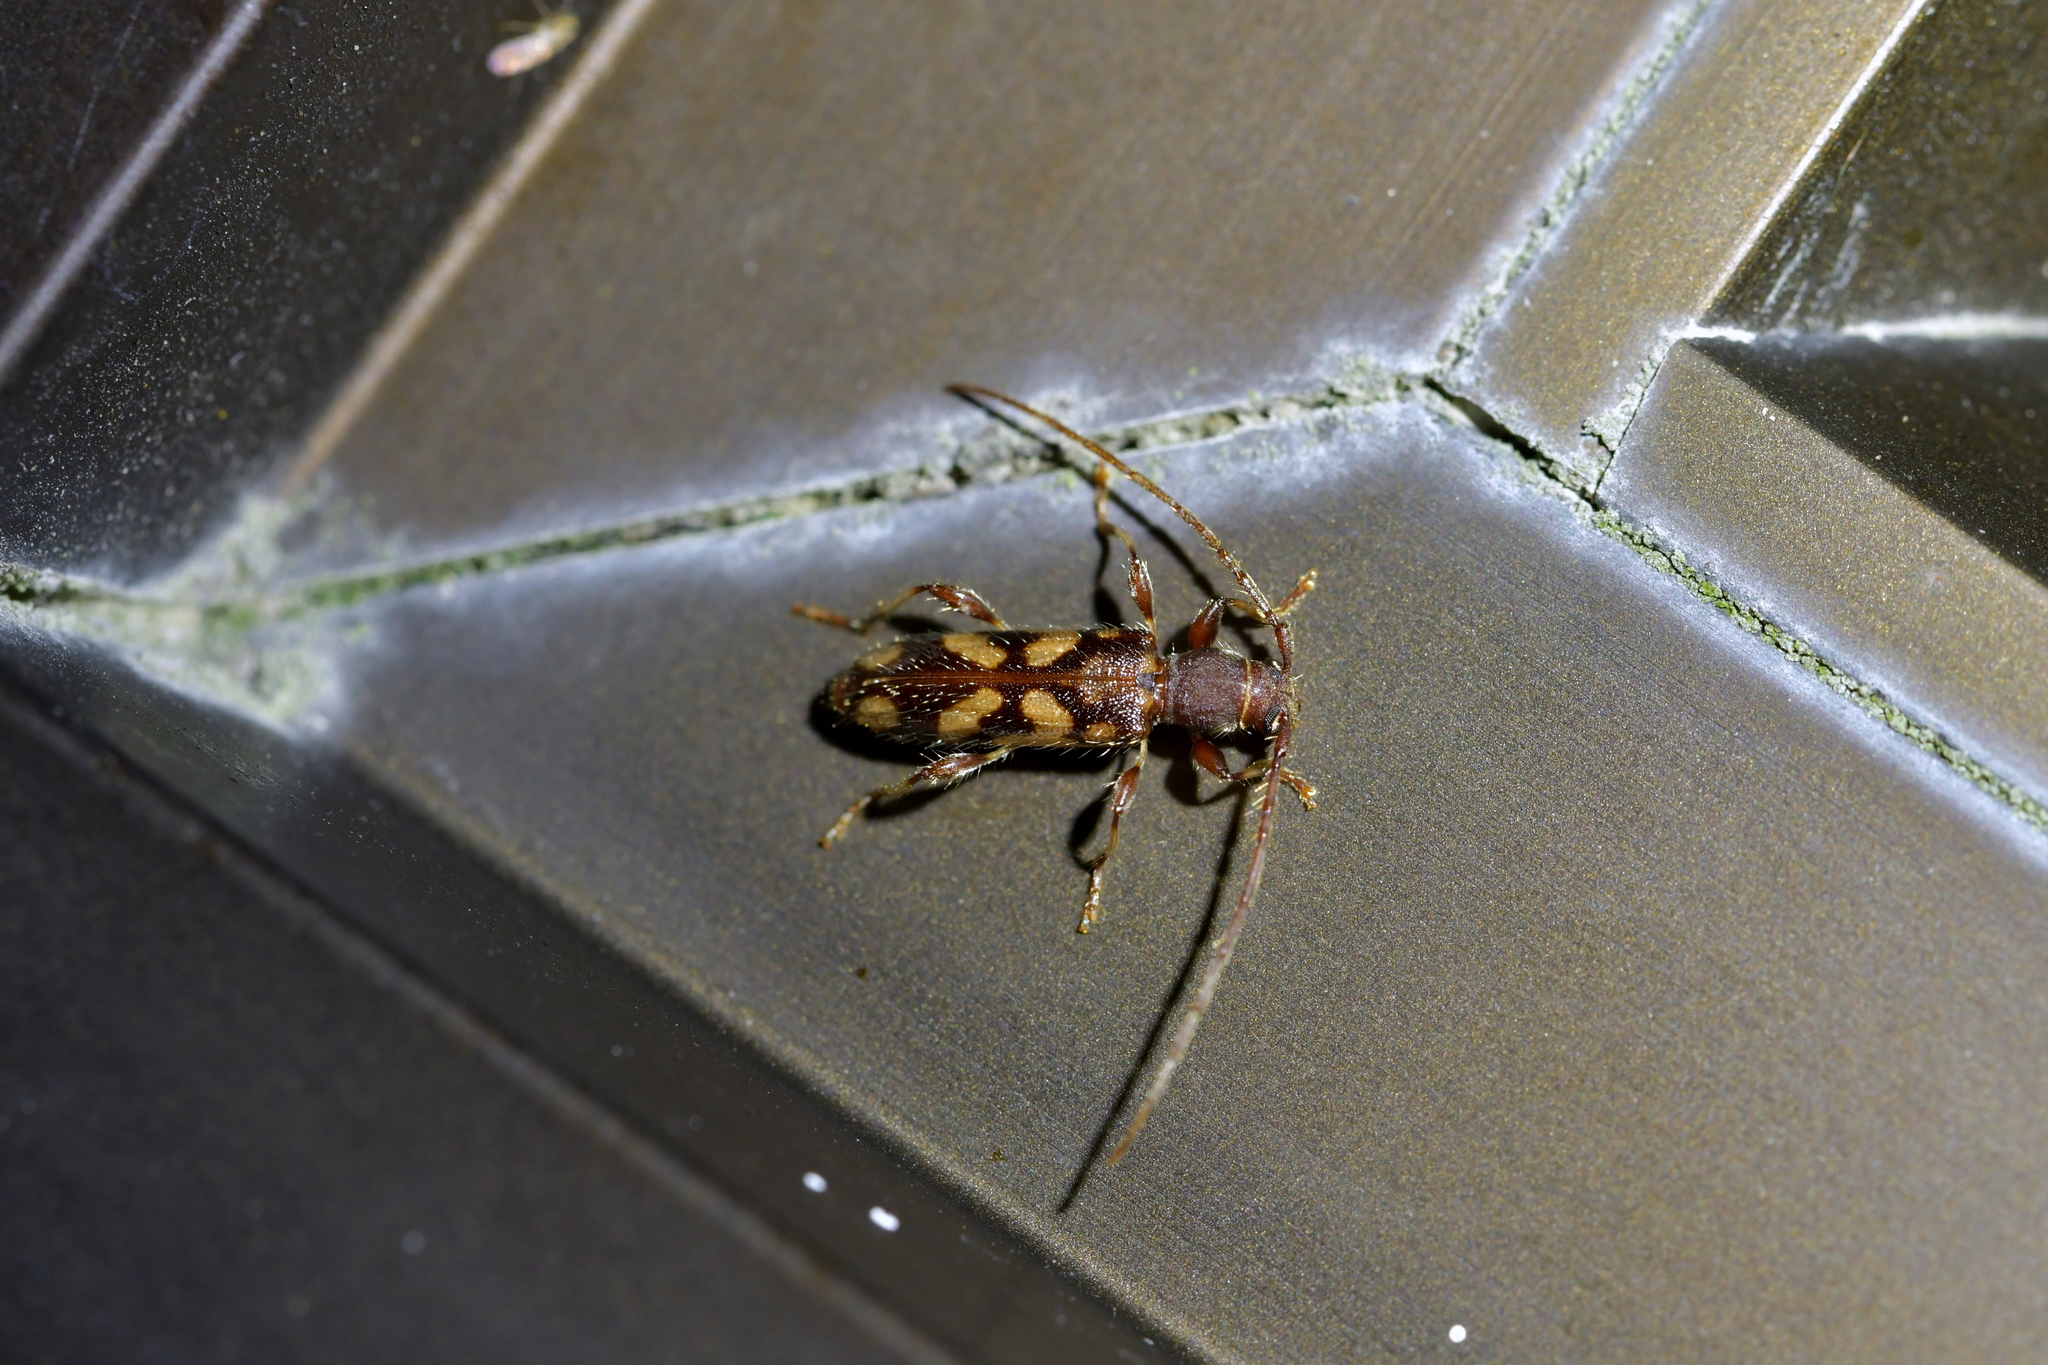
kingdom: Animalia
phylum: Arthropoda
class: Insecta
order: Coleoptera
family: Cerambycidae
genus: Bethelium
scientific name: Bethelium signiferum
